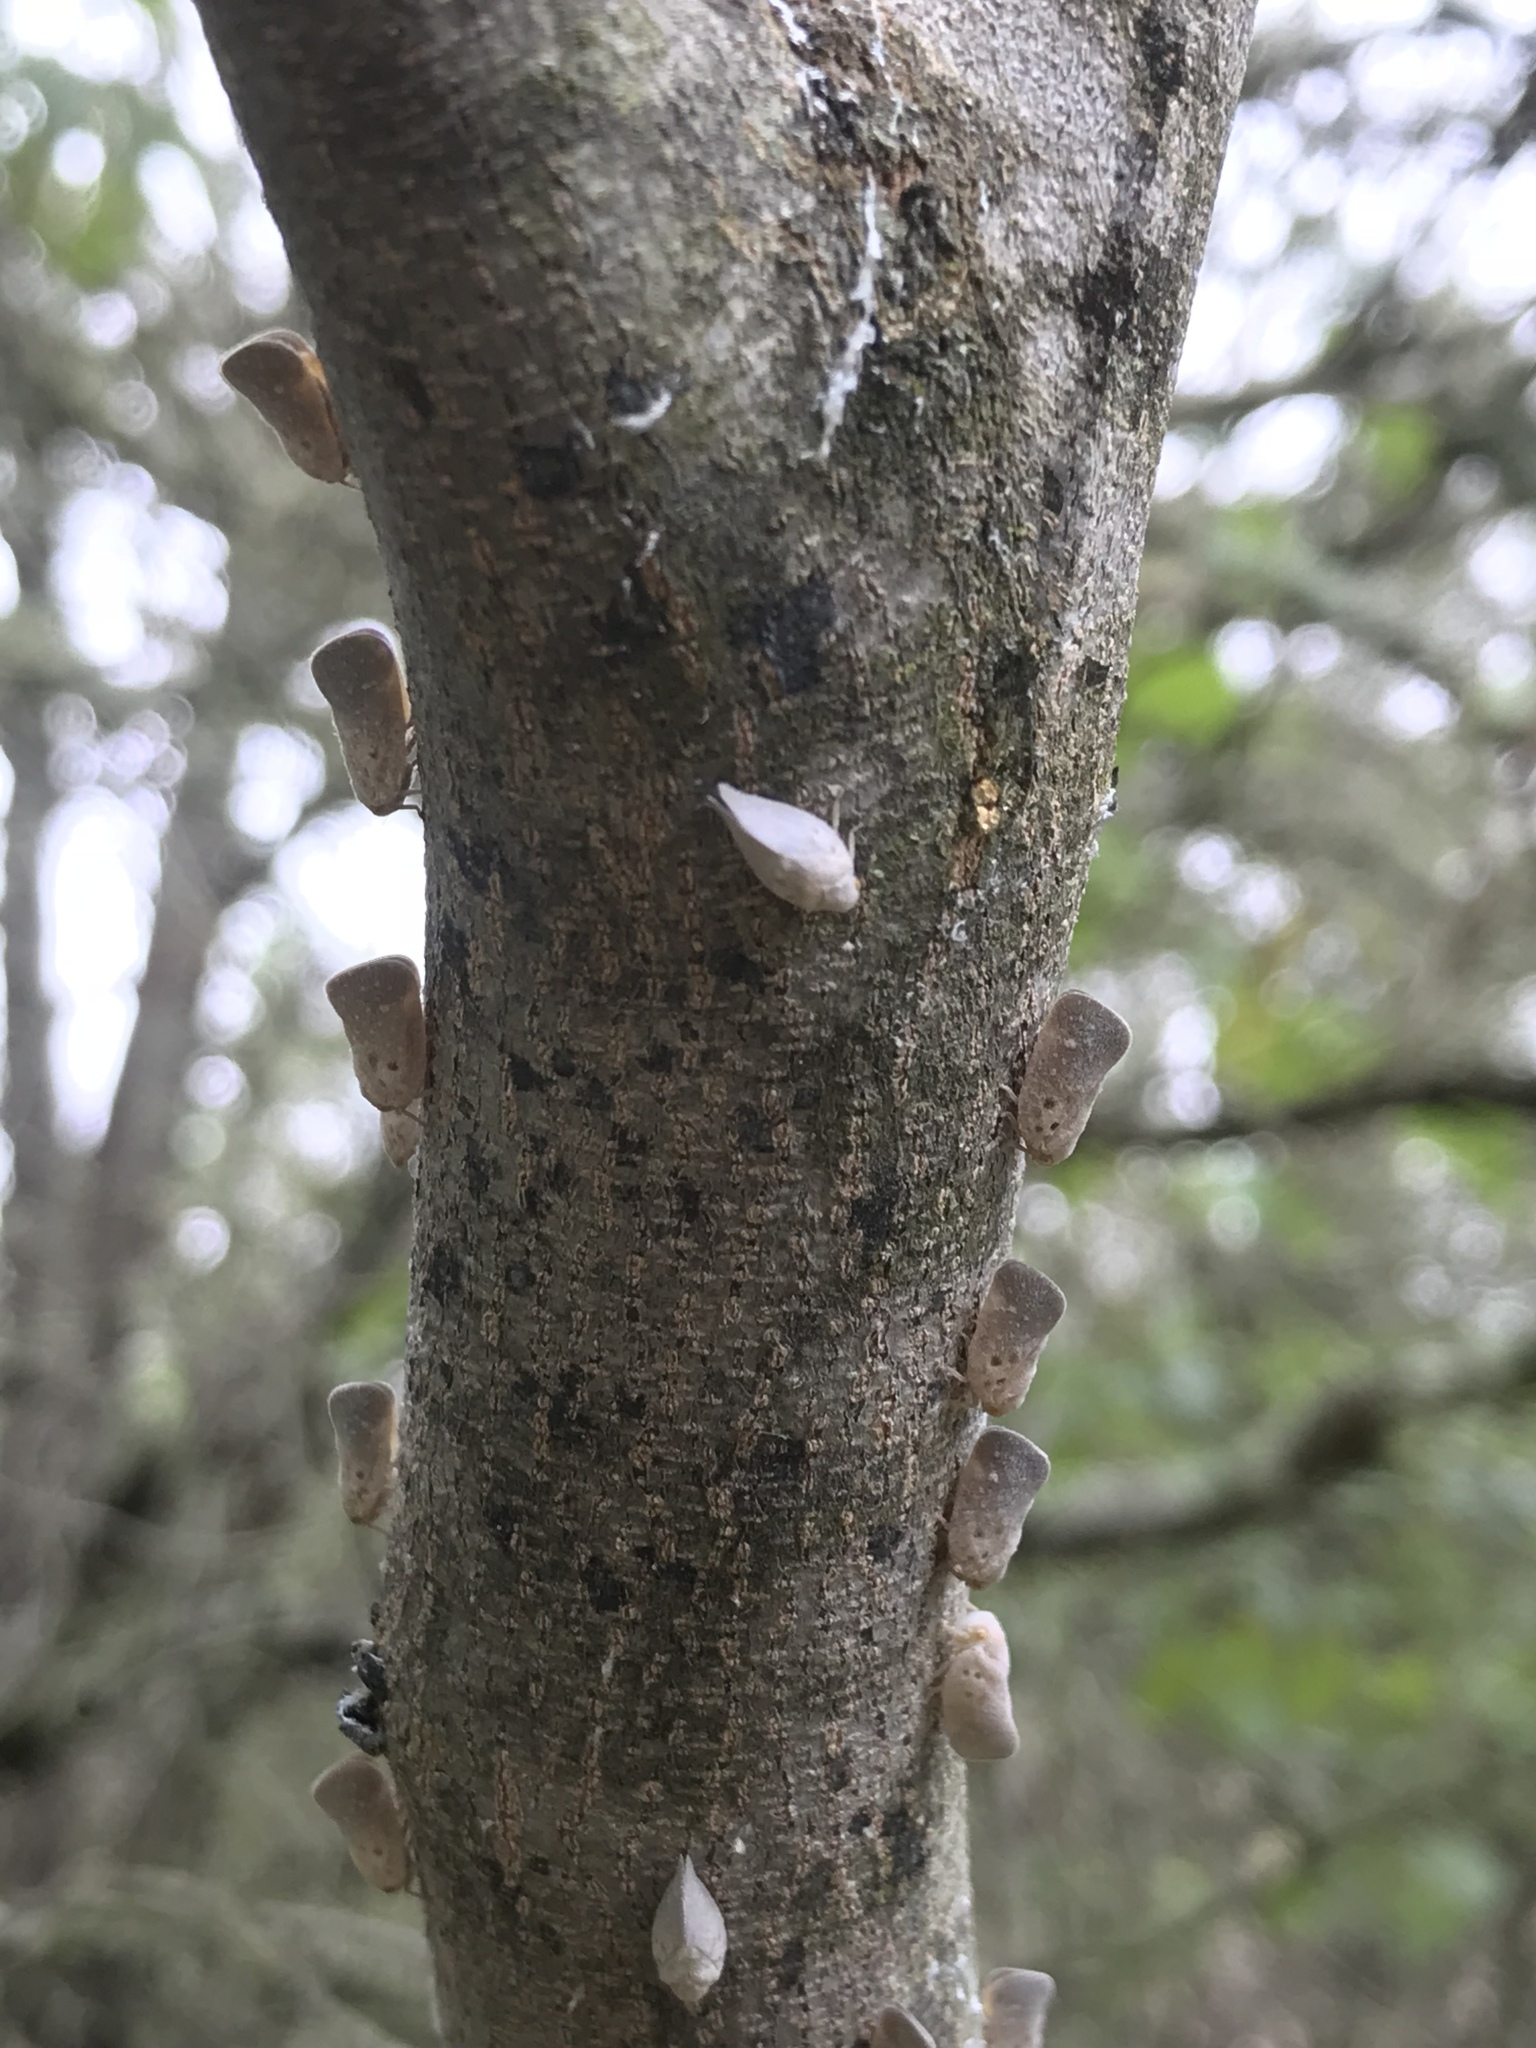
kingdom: Animalia
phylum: Arthropoda
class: Insecta
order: Hemiptera
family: Flatidae
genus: Metcalfa
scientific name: Metcalfa pruinosa
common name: Citrus flatid planthopper
